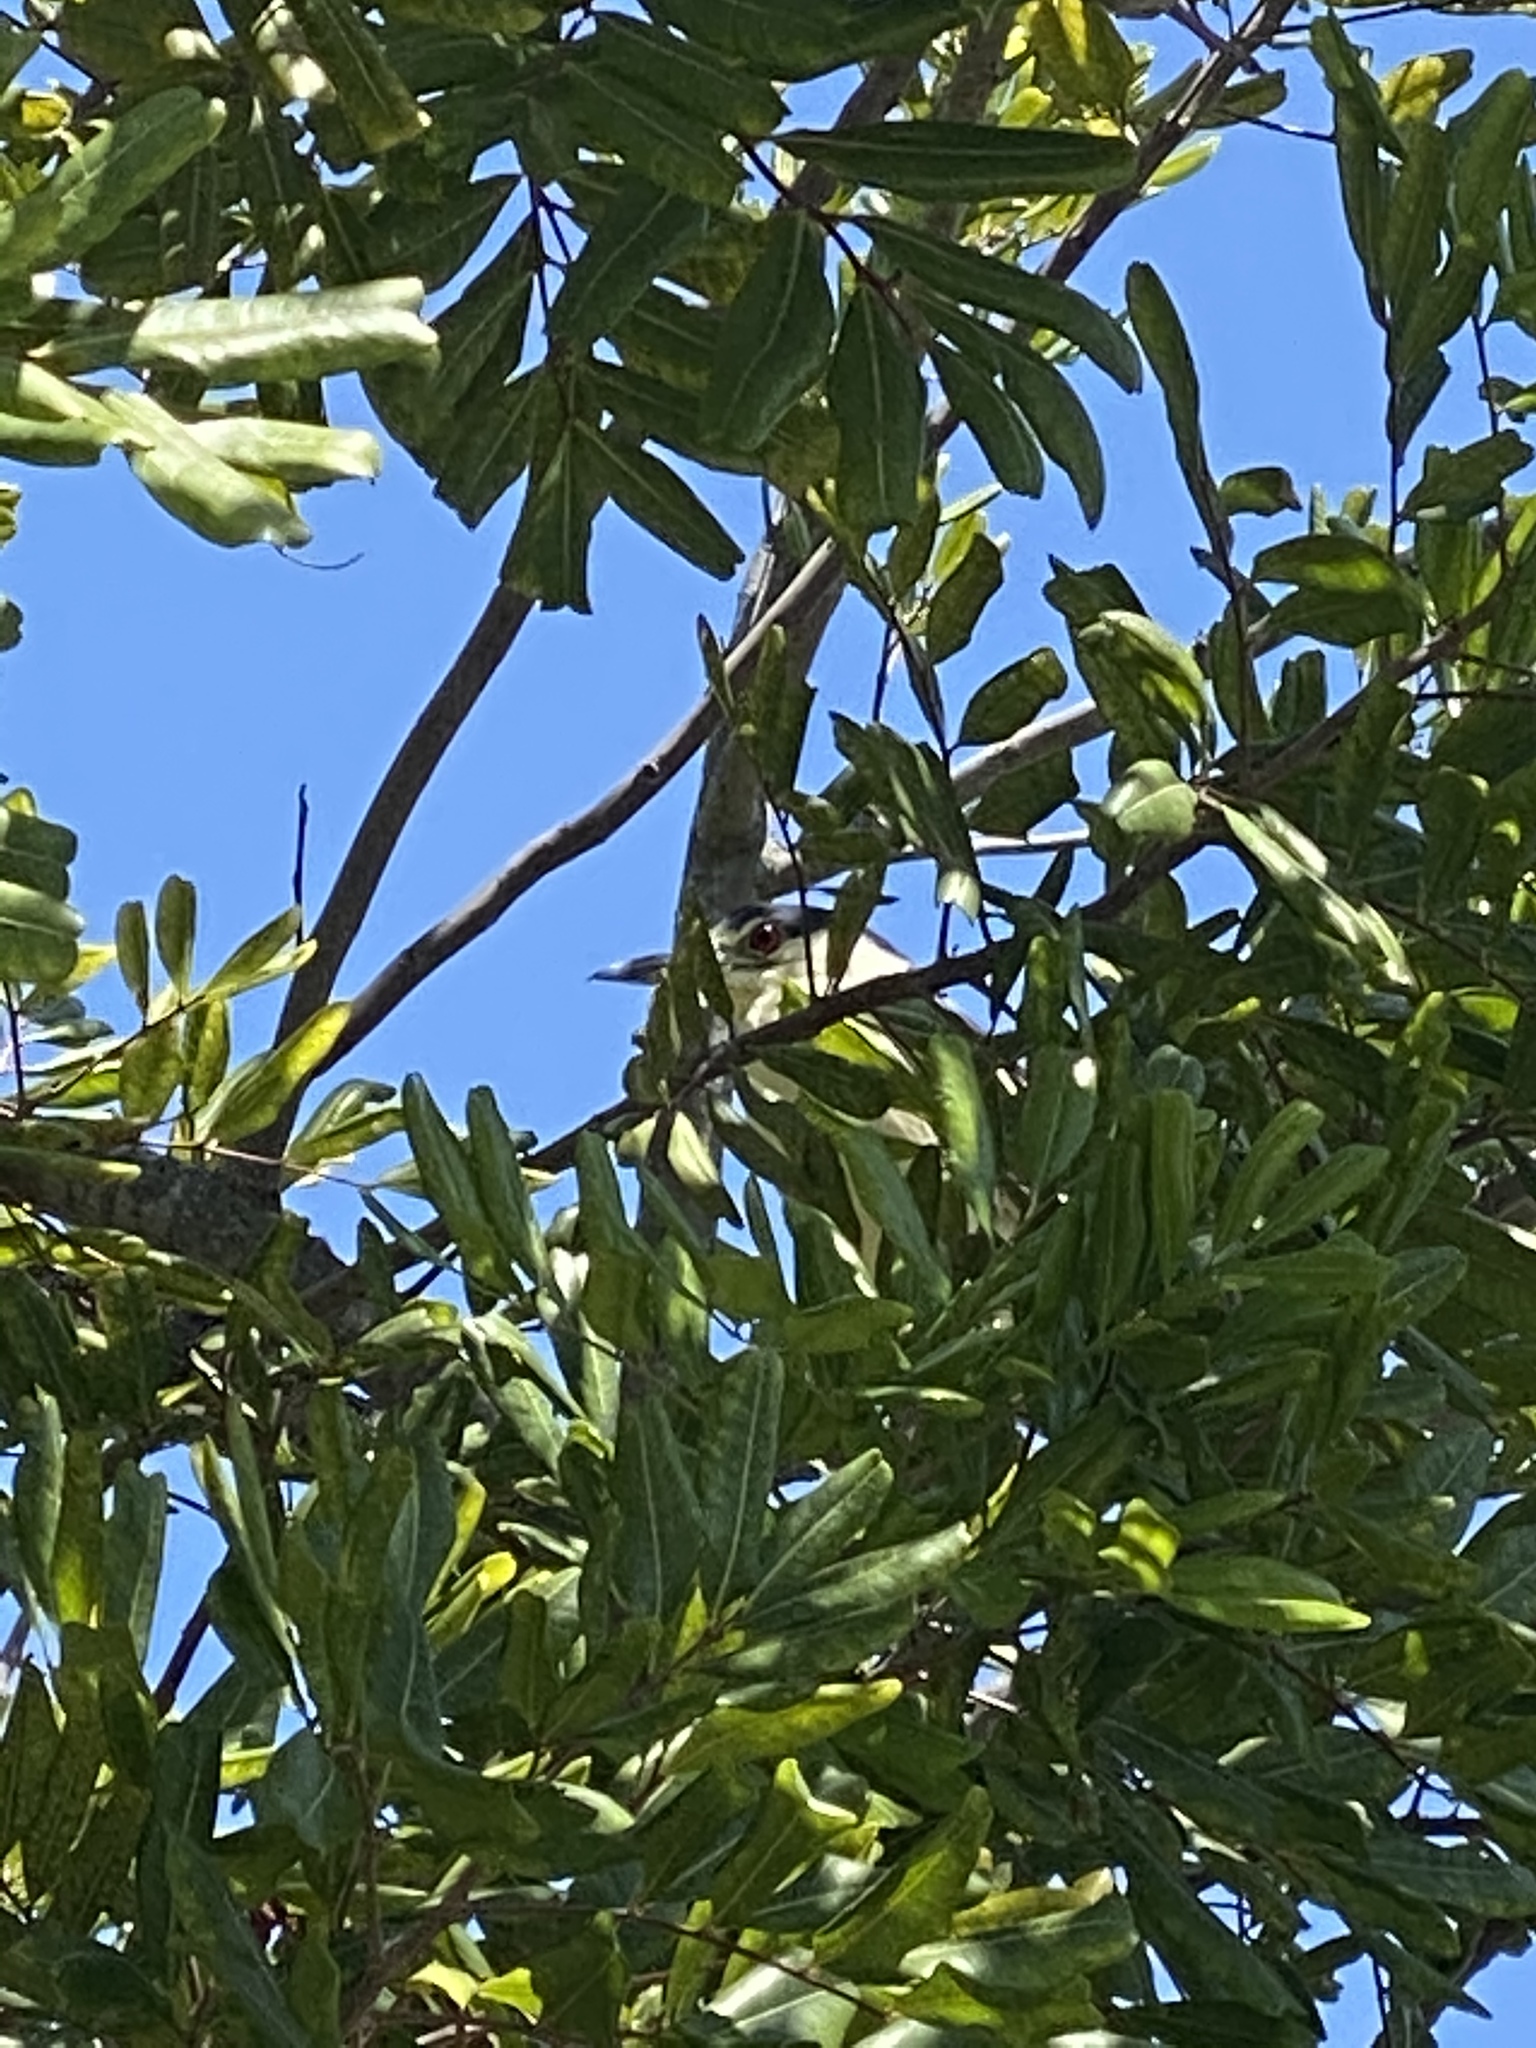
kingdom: Animalia
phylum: Chordata
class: Aves
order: Pelecaniformes
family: Ardeidae
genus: Nycticorax
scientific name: Nycticorax nycticorax
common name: Black-crowned night heron
